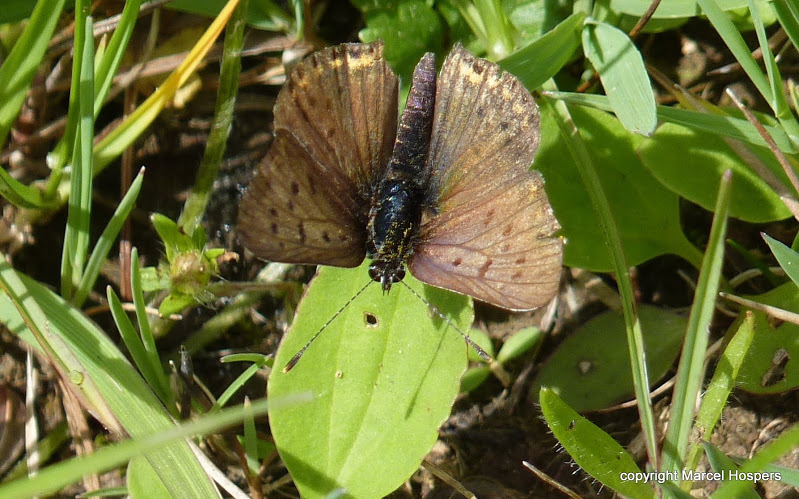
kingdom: Animalia
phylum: Arthropoda
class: Insecta
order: Lepidoptera
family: Lycaenidae
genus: Loweia
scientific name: Loweia tityrus
